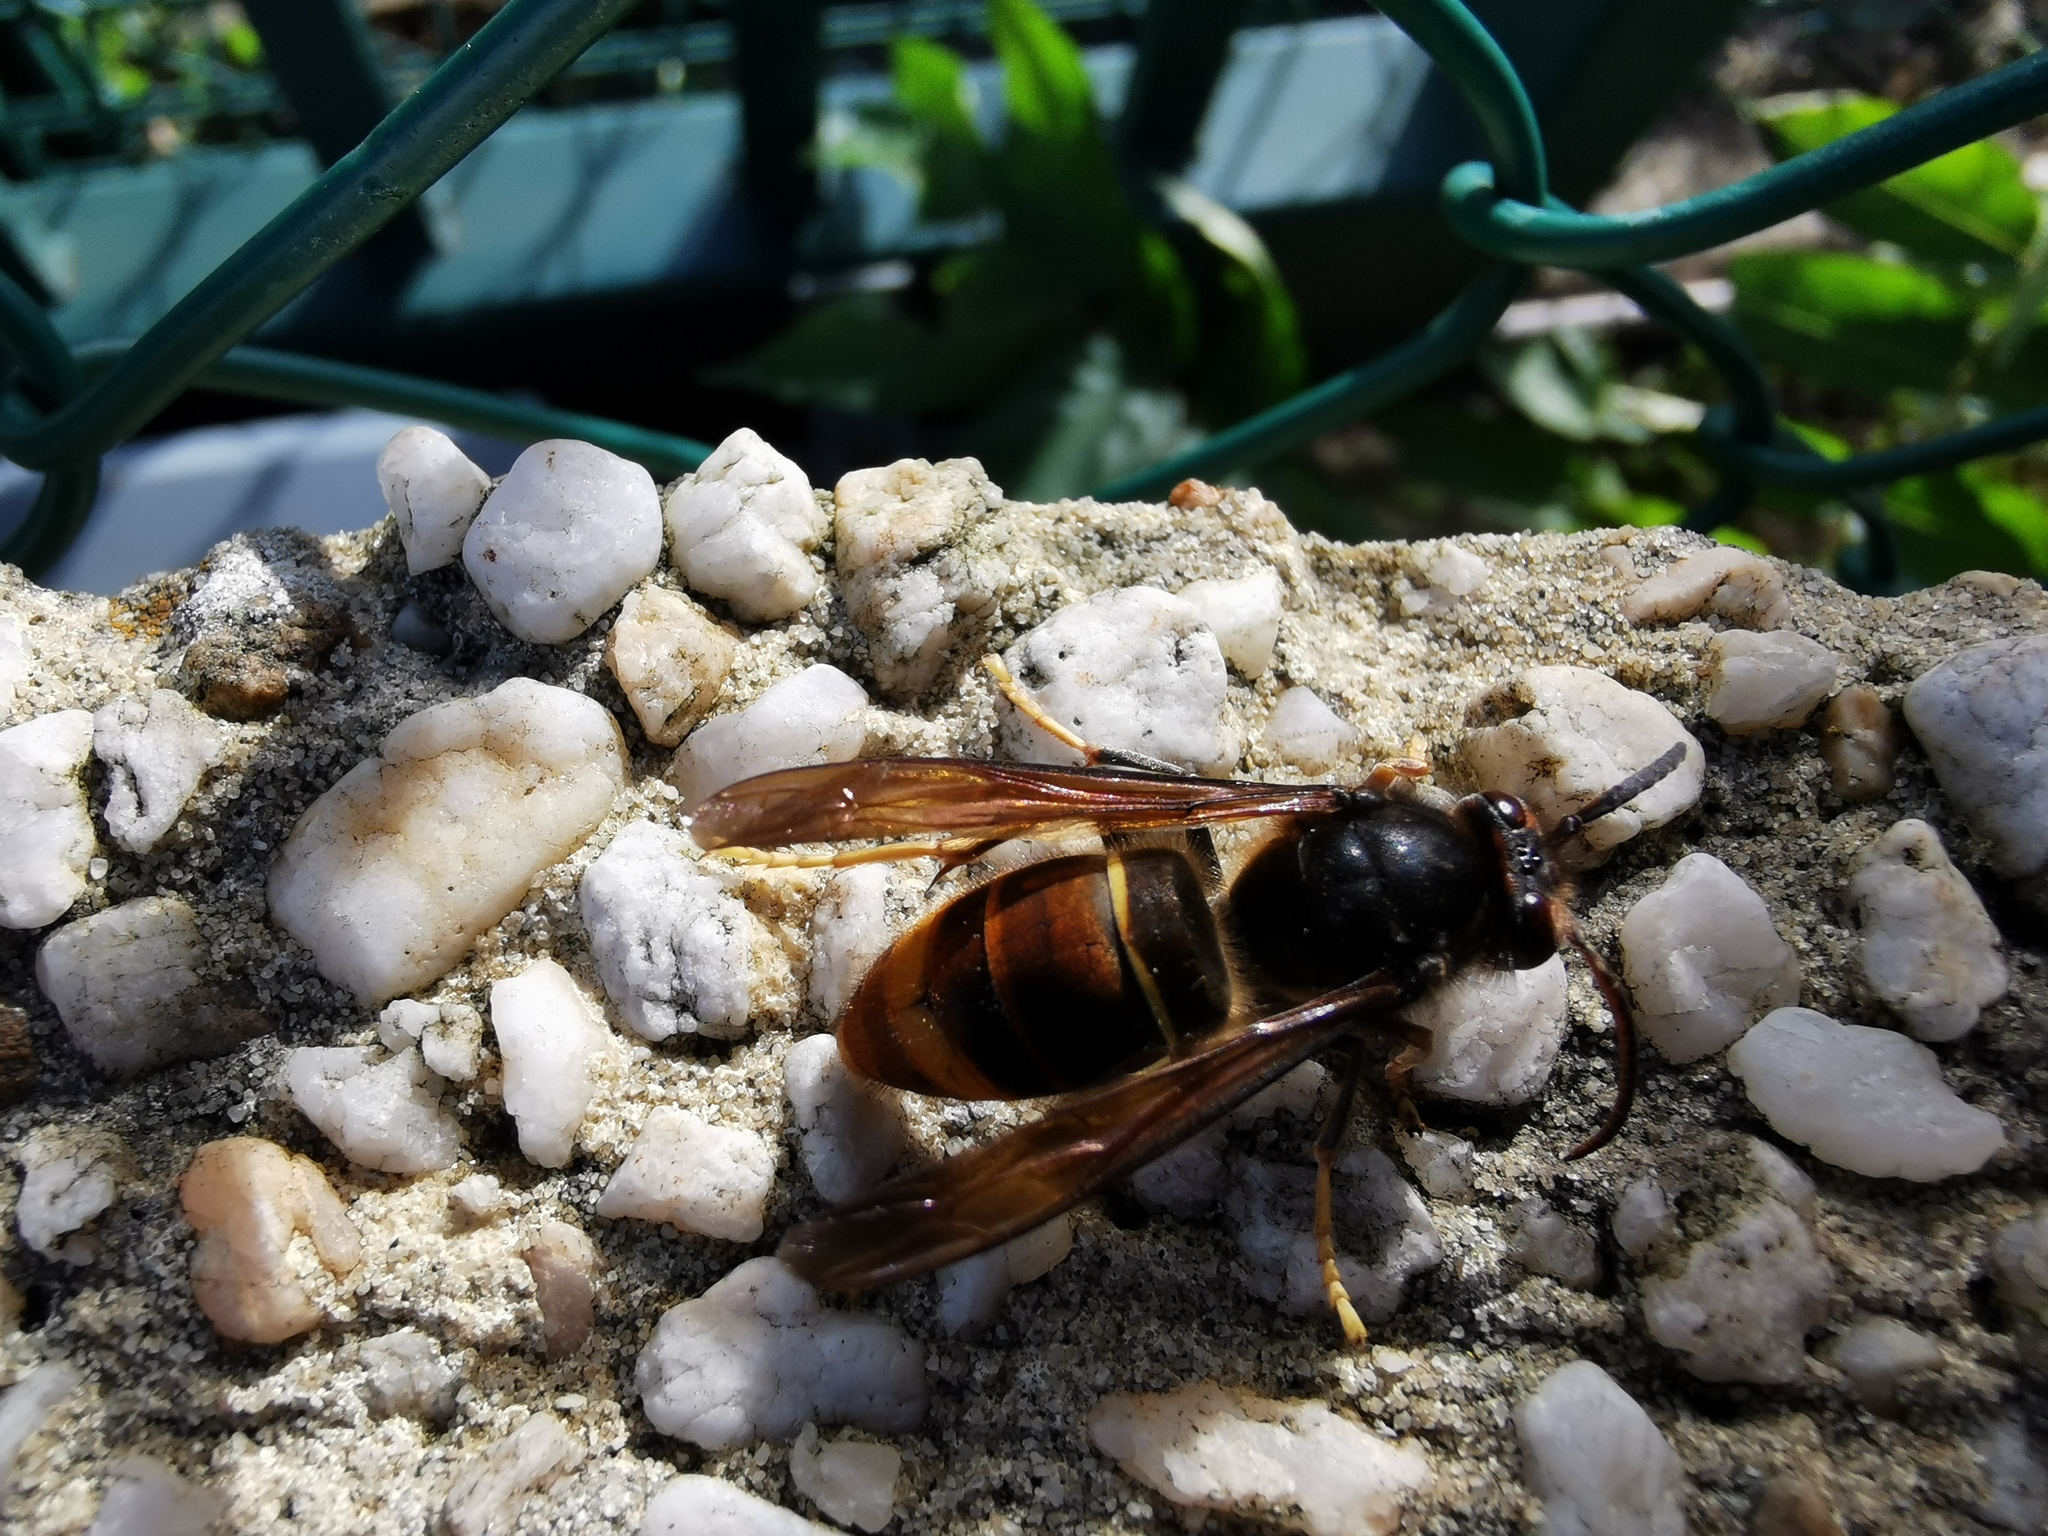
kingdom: Animalia
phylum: Arthropoda
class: Insecta
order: Hymenoptera
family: Vespidae
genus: Vespa
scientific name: Vespa velutina
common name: Asian hornet
